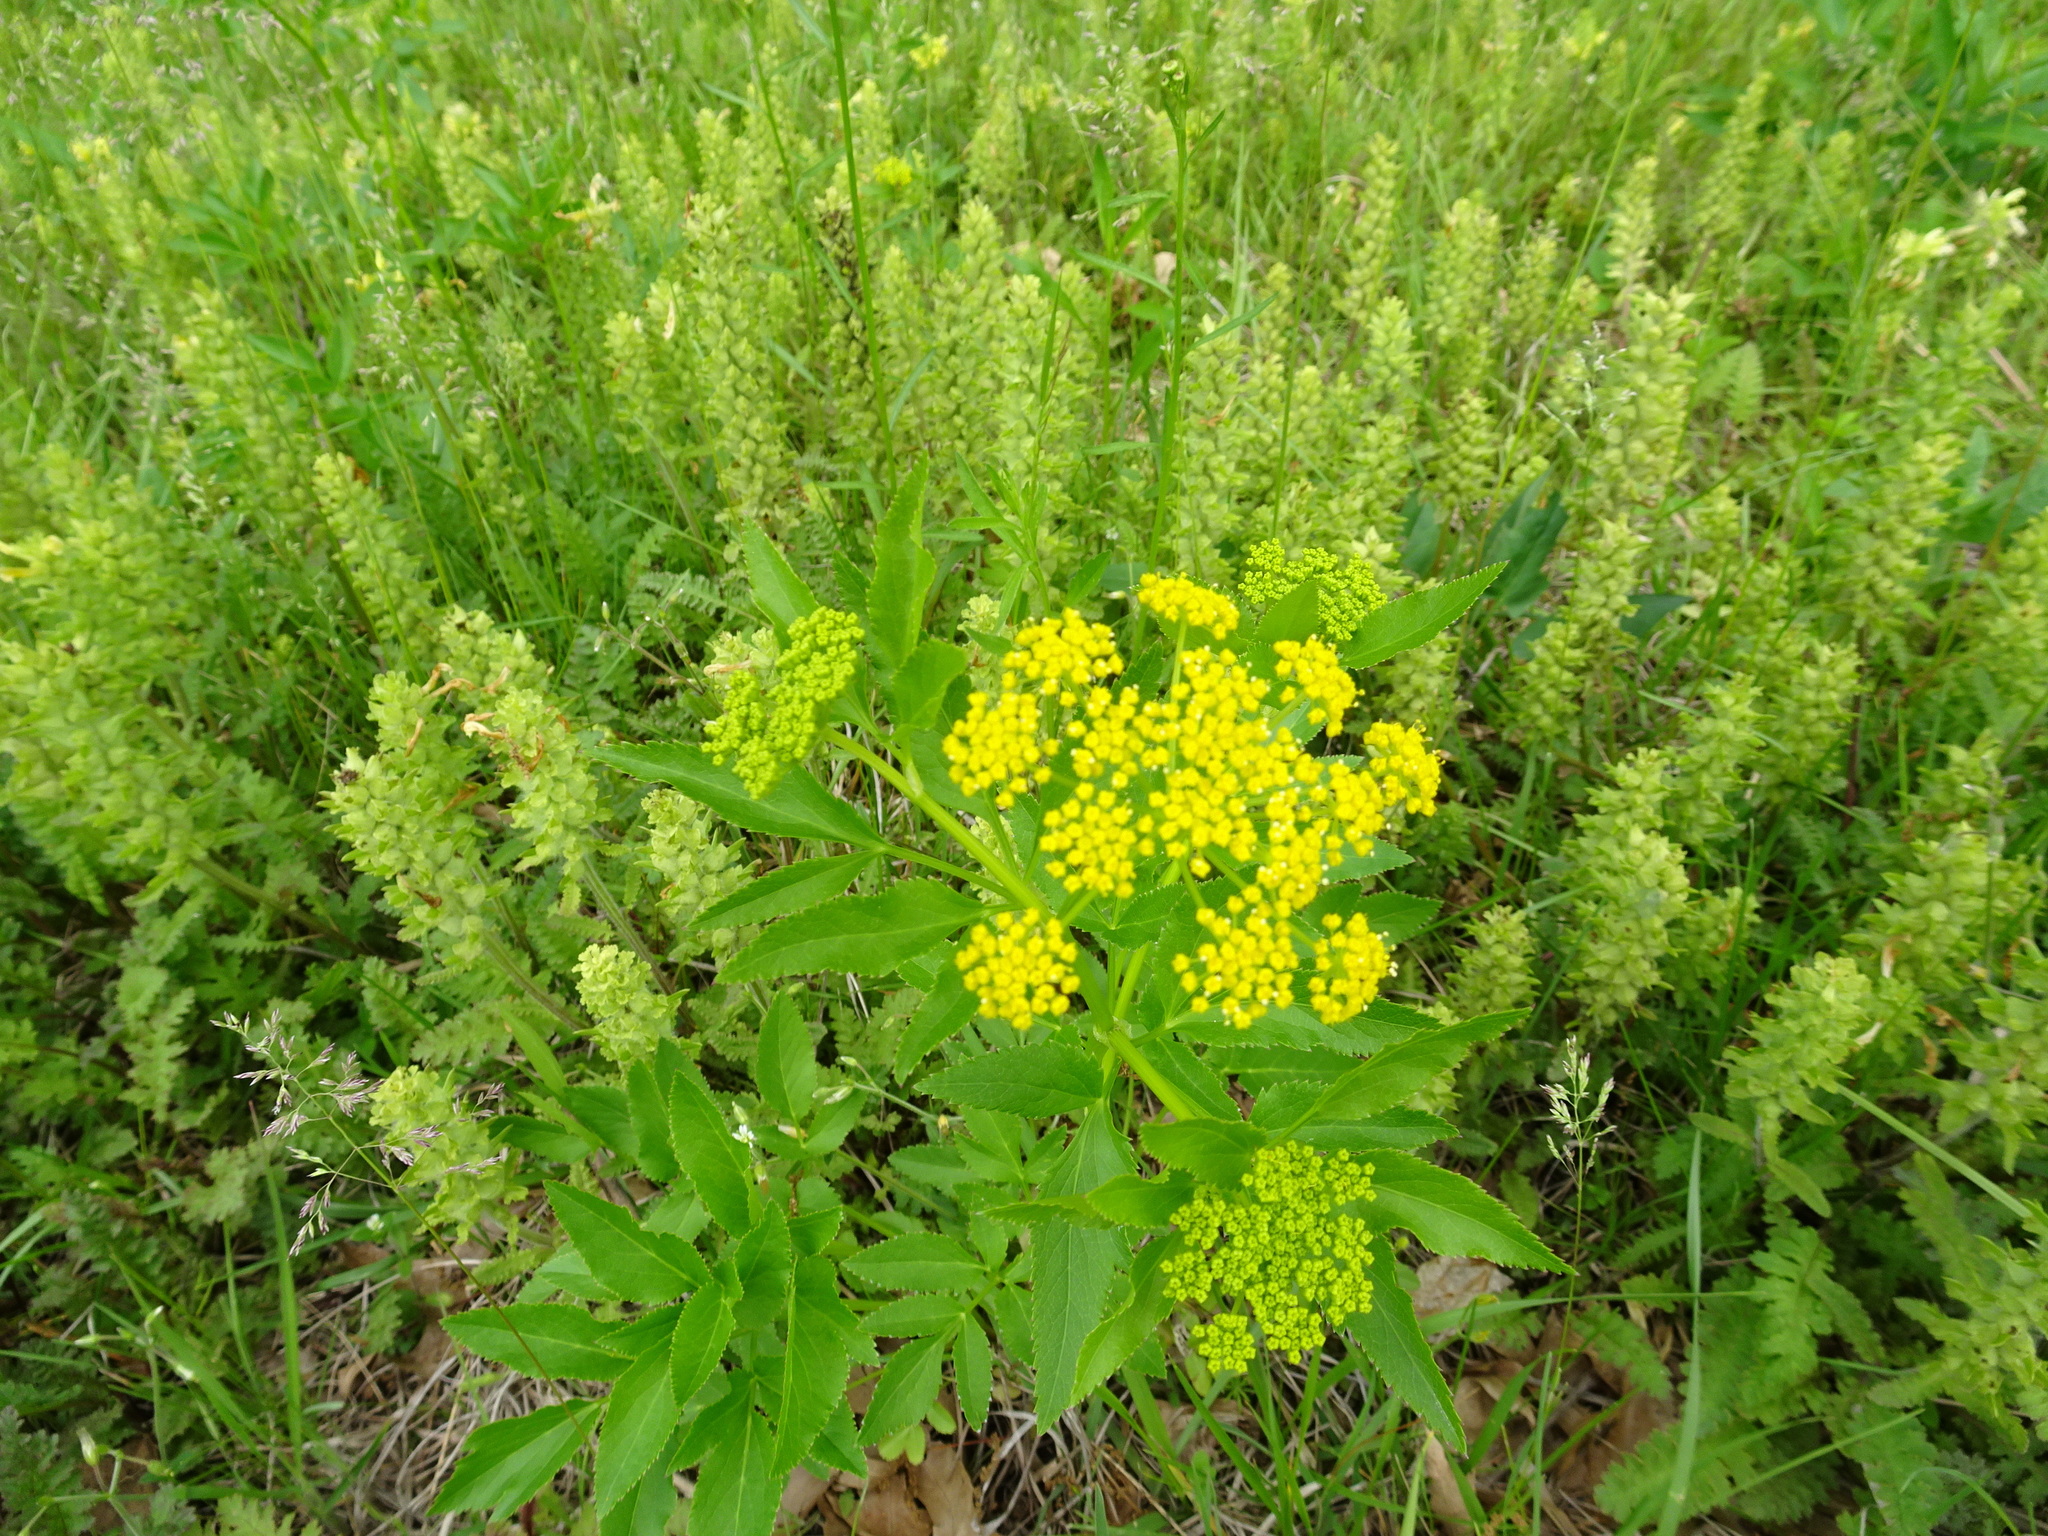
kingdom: Plantae
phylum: Tracheophyta
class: Magnoliopsida
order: Apiales
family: Apiaceae
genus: Zizia
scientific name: Zizia aurea
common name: Golden alexanders
